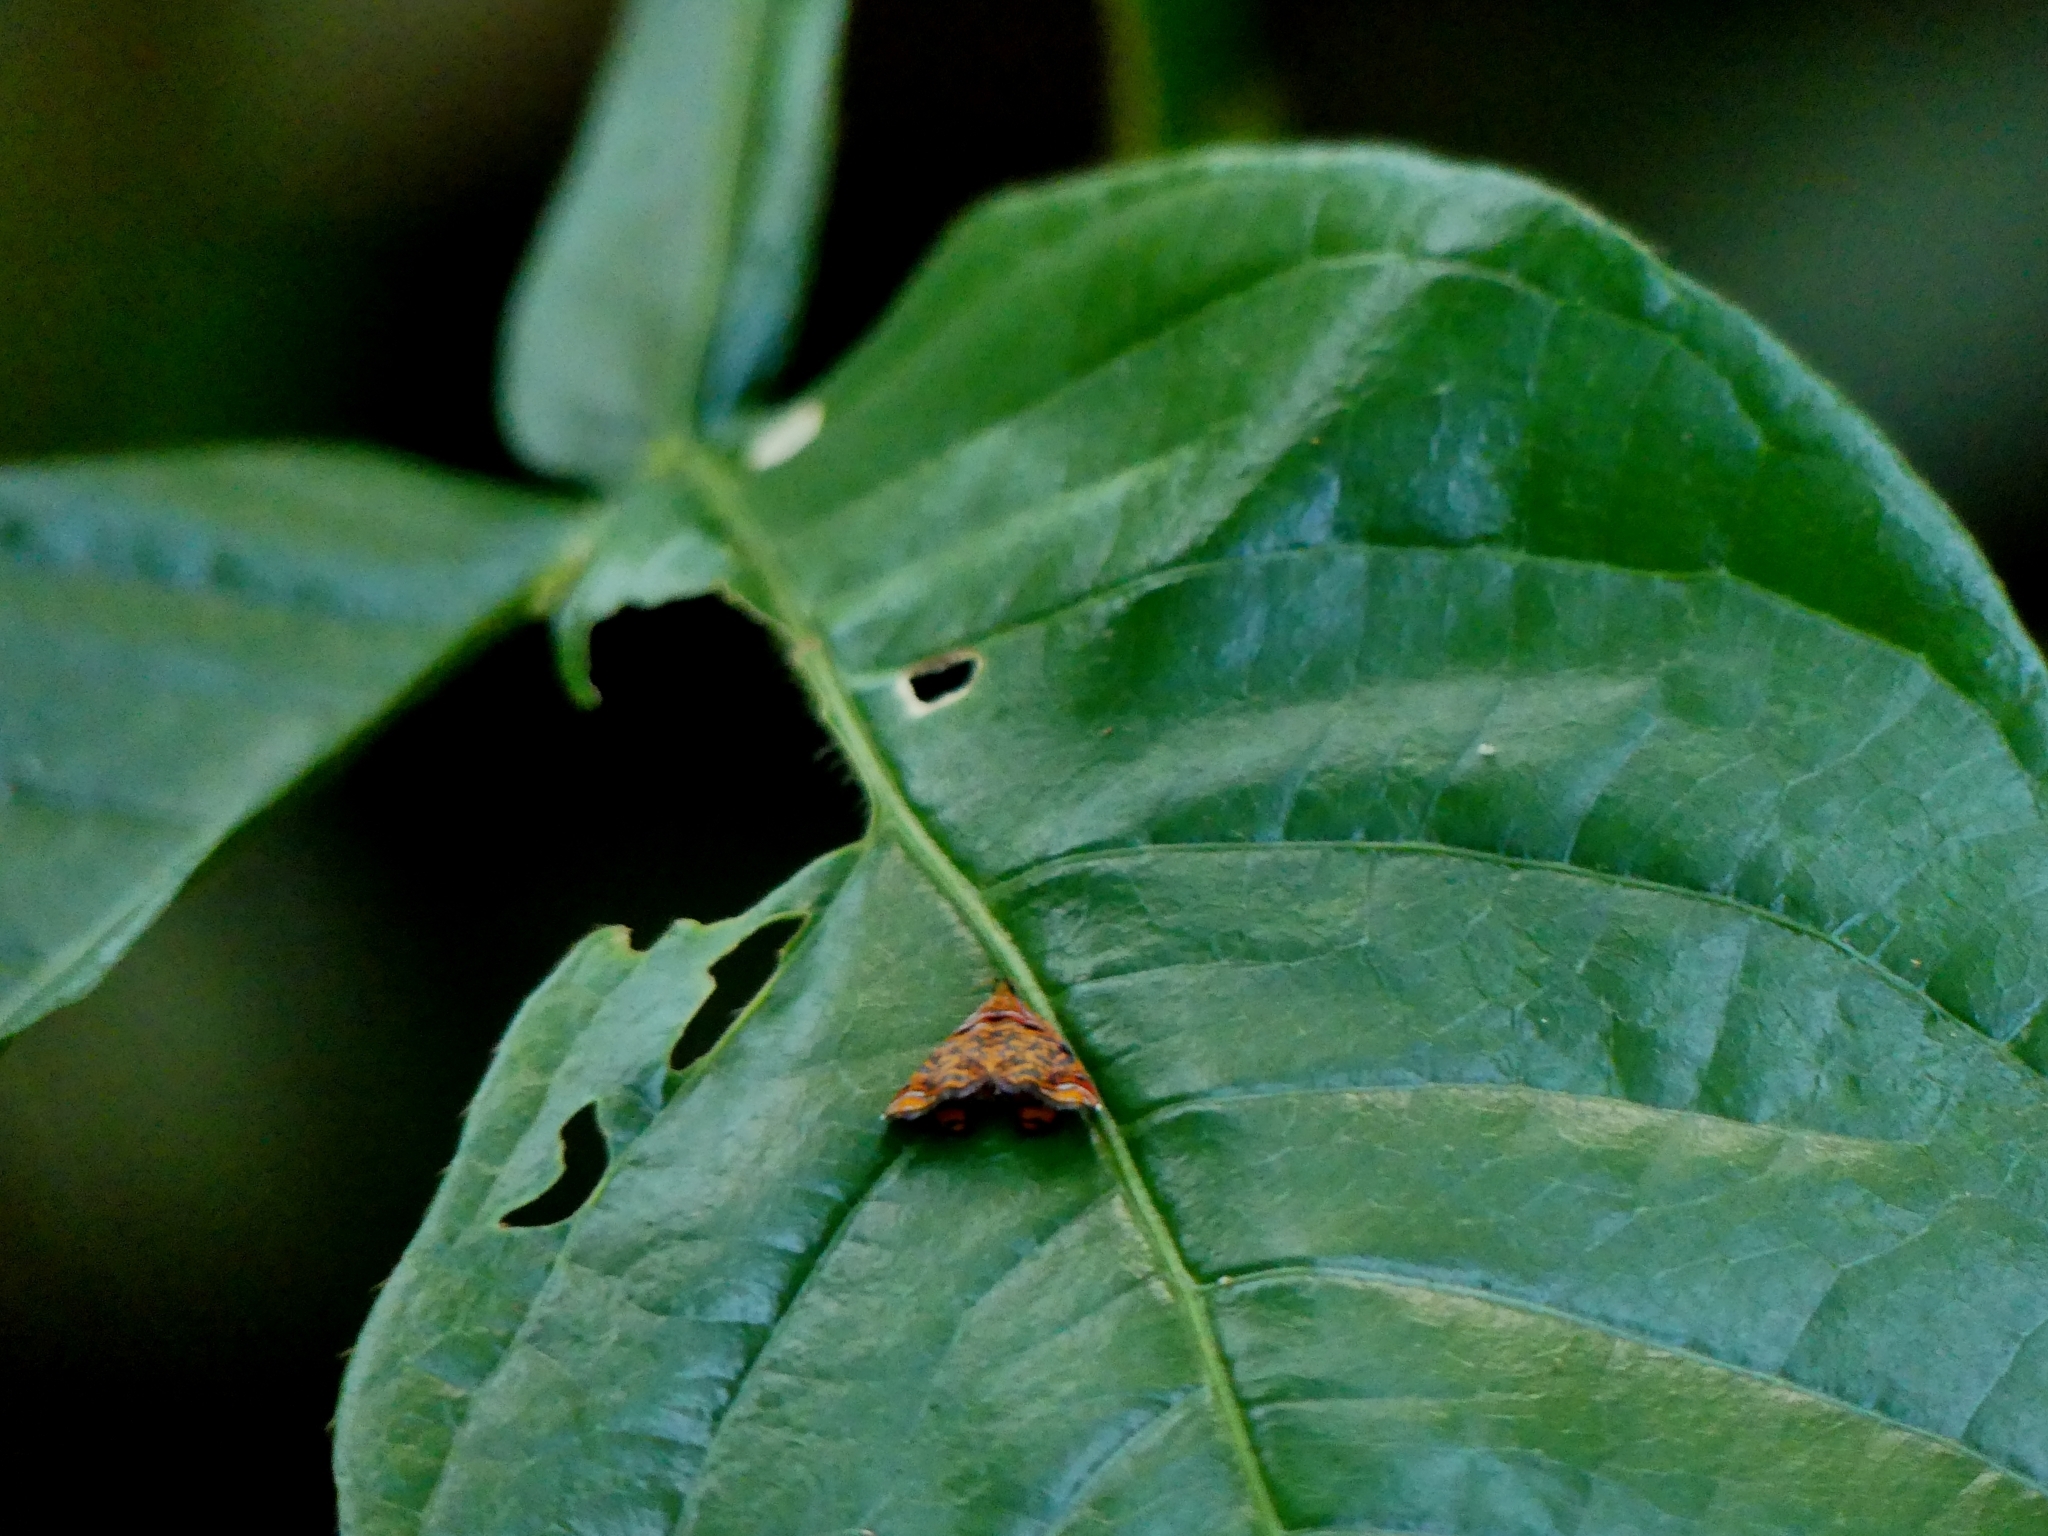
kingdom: Animalia
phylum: Arthropoda
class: Insecta
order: Lepidoptera
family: Tortricidae
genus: Rubropsichia
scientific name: Rubropsichia
